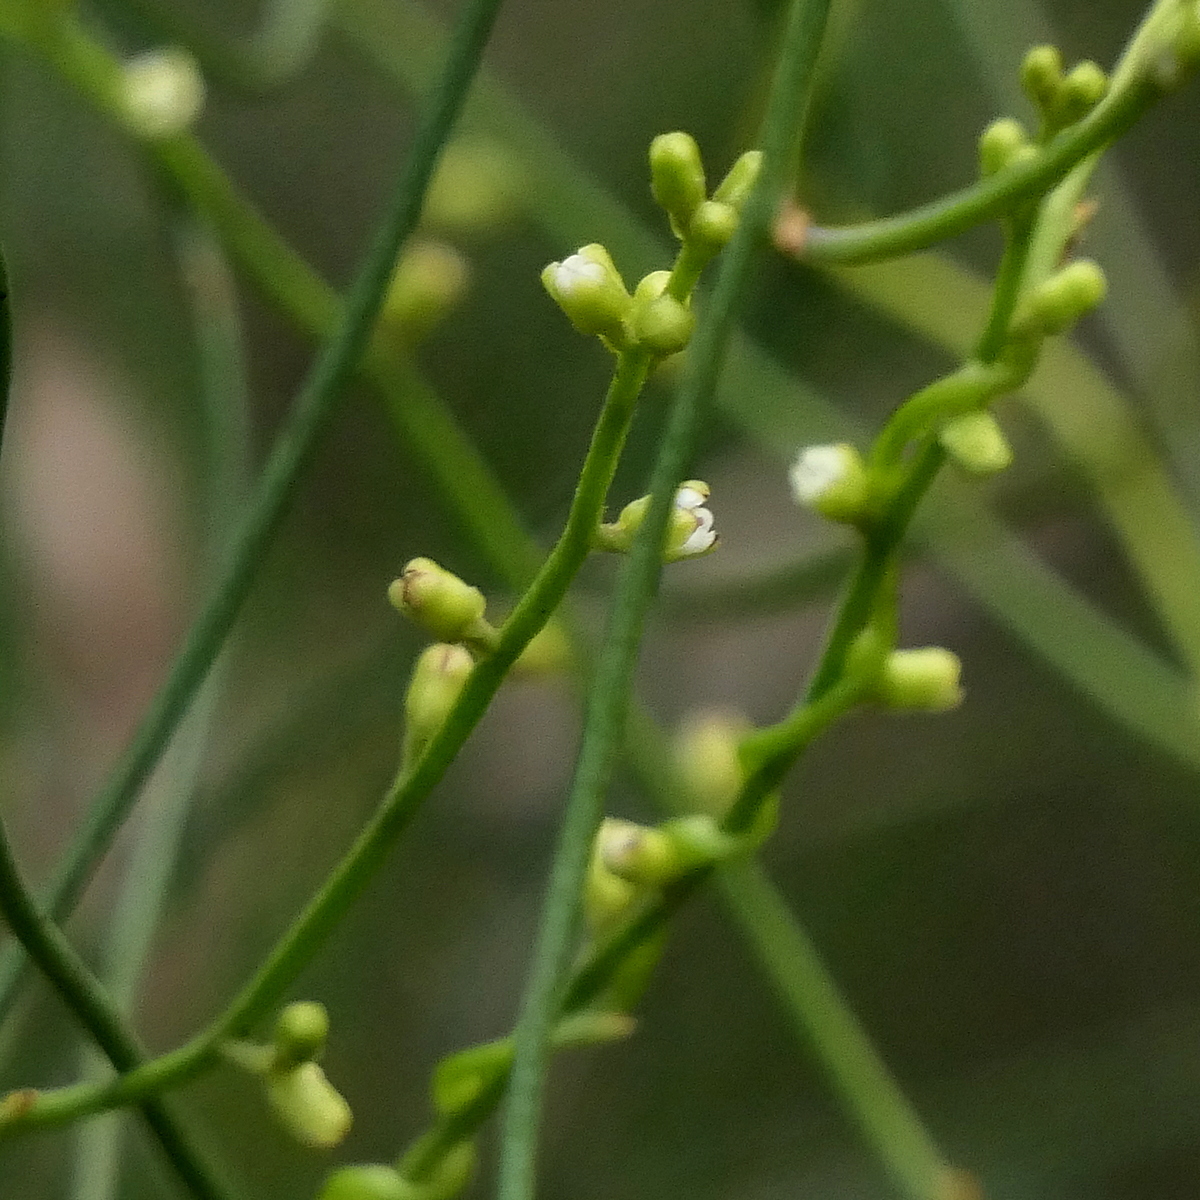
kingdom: Plantae
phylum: Tracheophyta
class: Magnoliopsida
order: Laurales
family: Lauraceae
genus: Cassytha
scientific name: Cassytha paniculata
